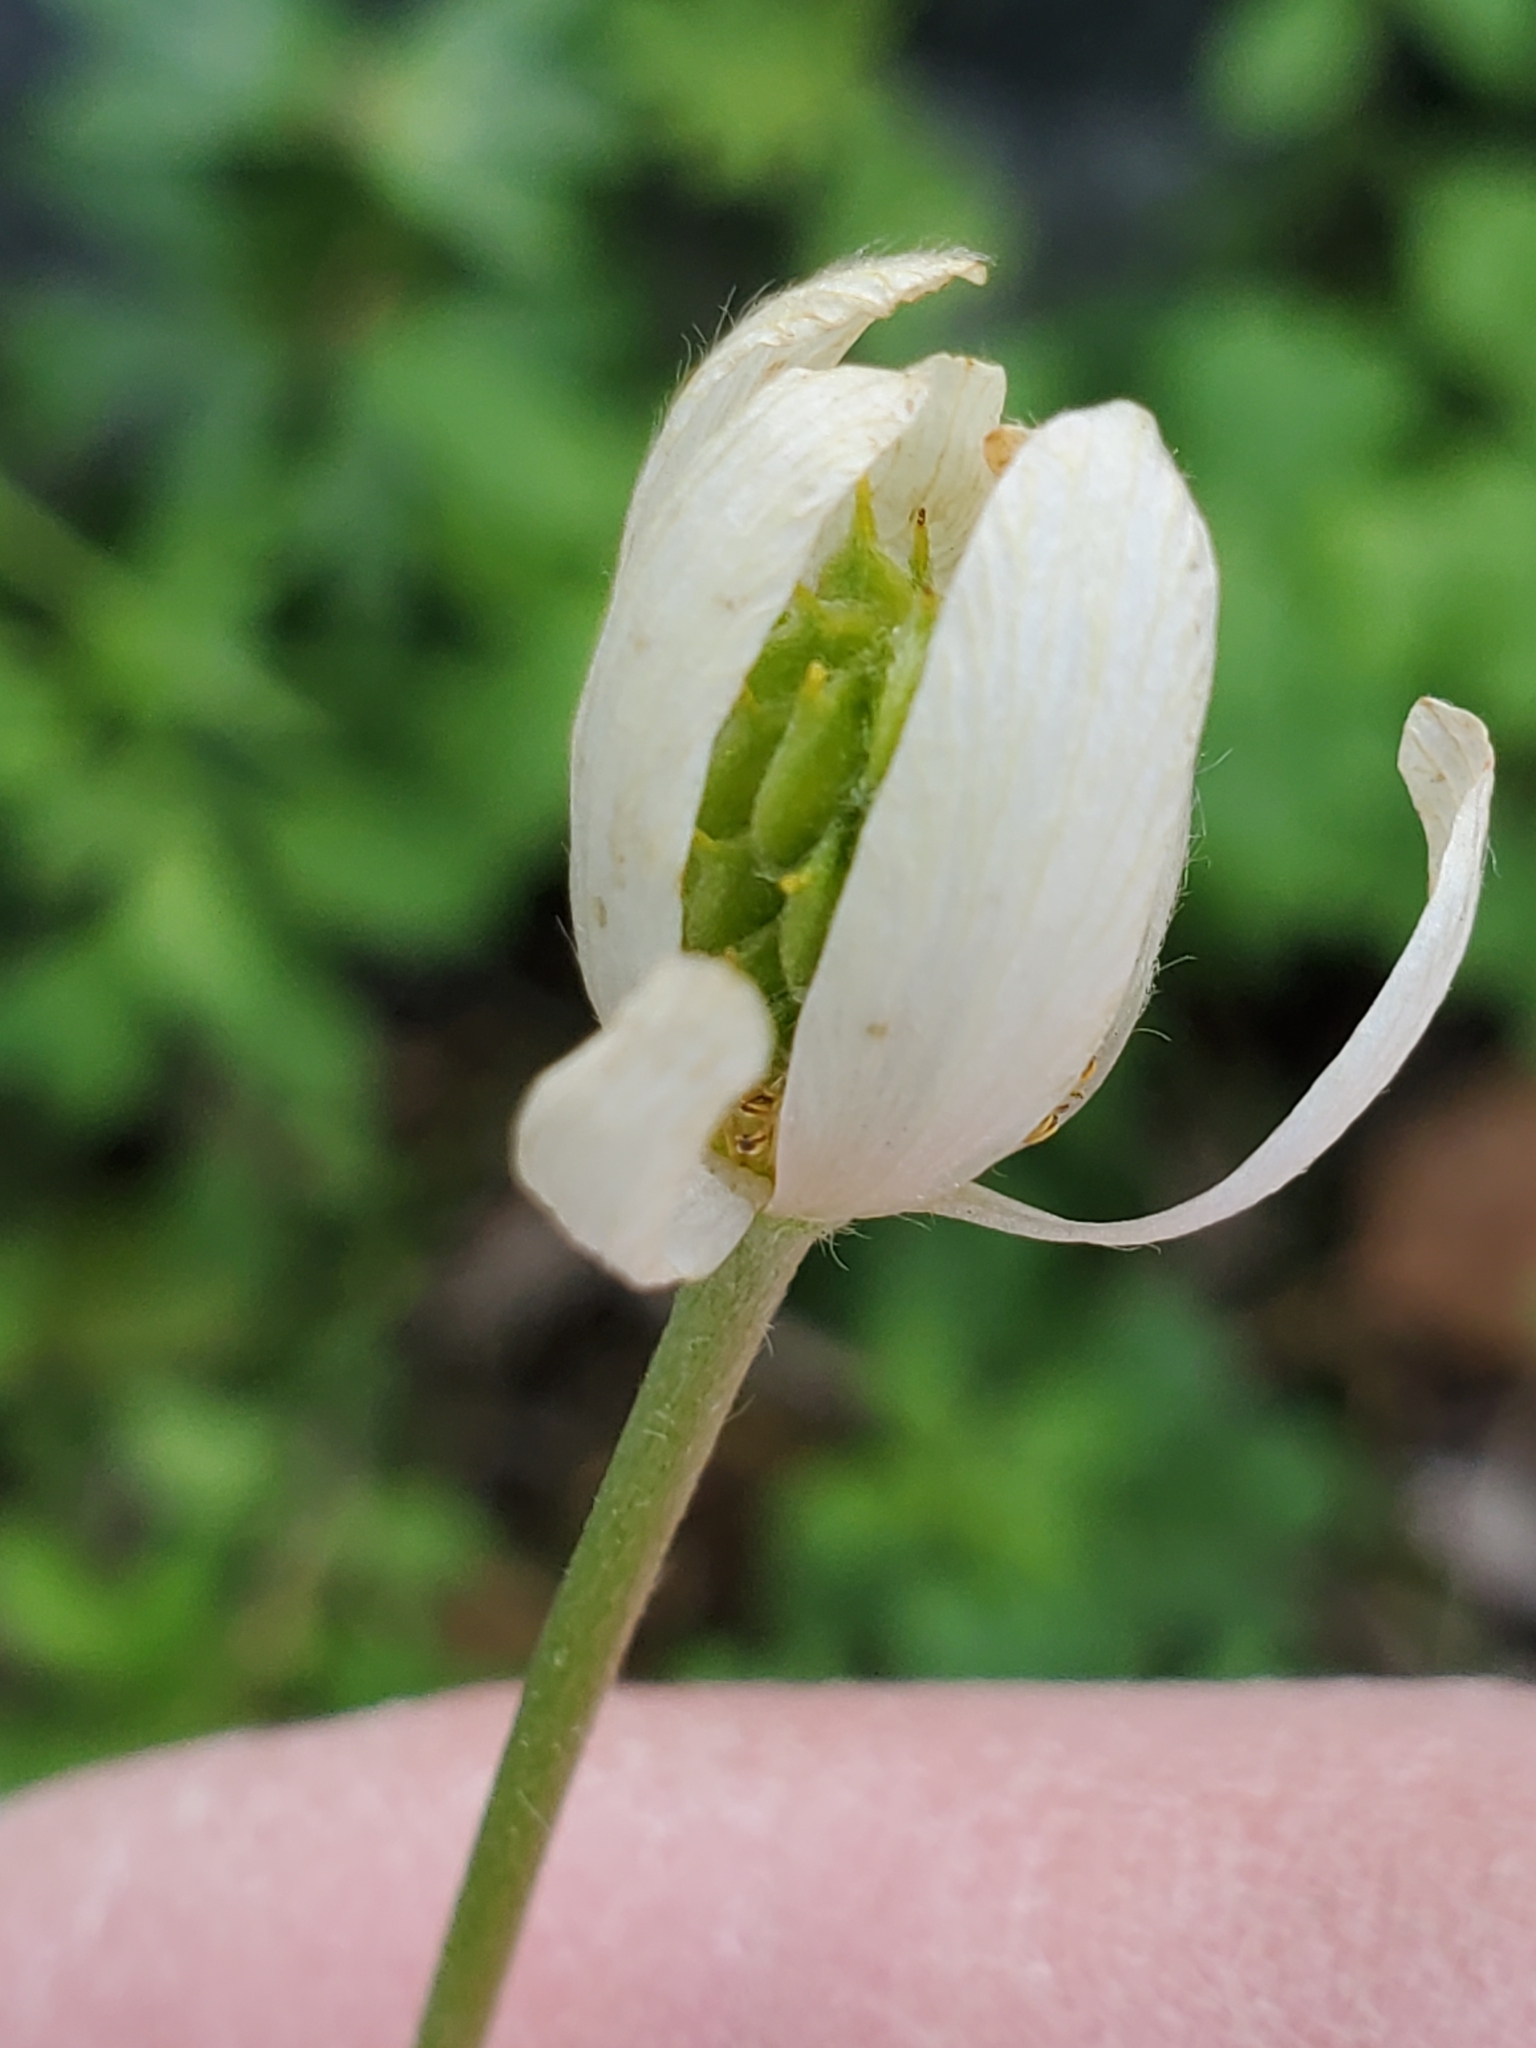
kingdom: Plantae
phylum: Tracheophyta
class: Magnoliopsida
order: Ranunculales
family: Ranunculaceae
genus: Anemone
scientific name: Anemone edwardsiana
